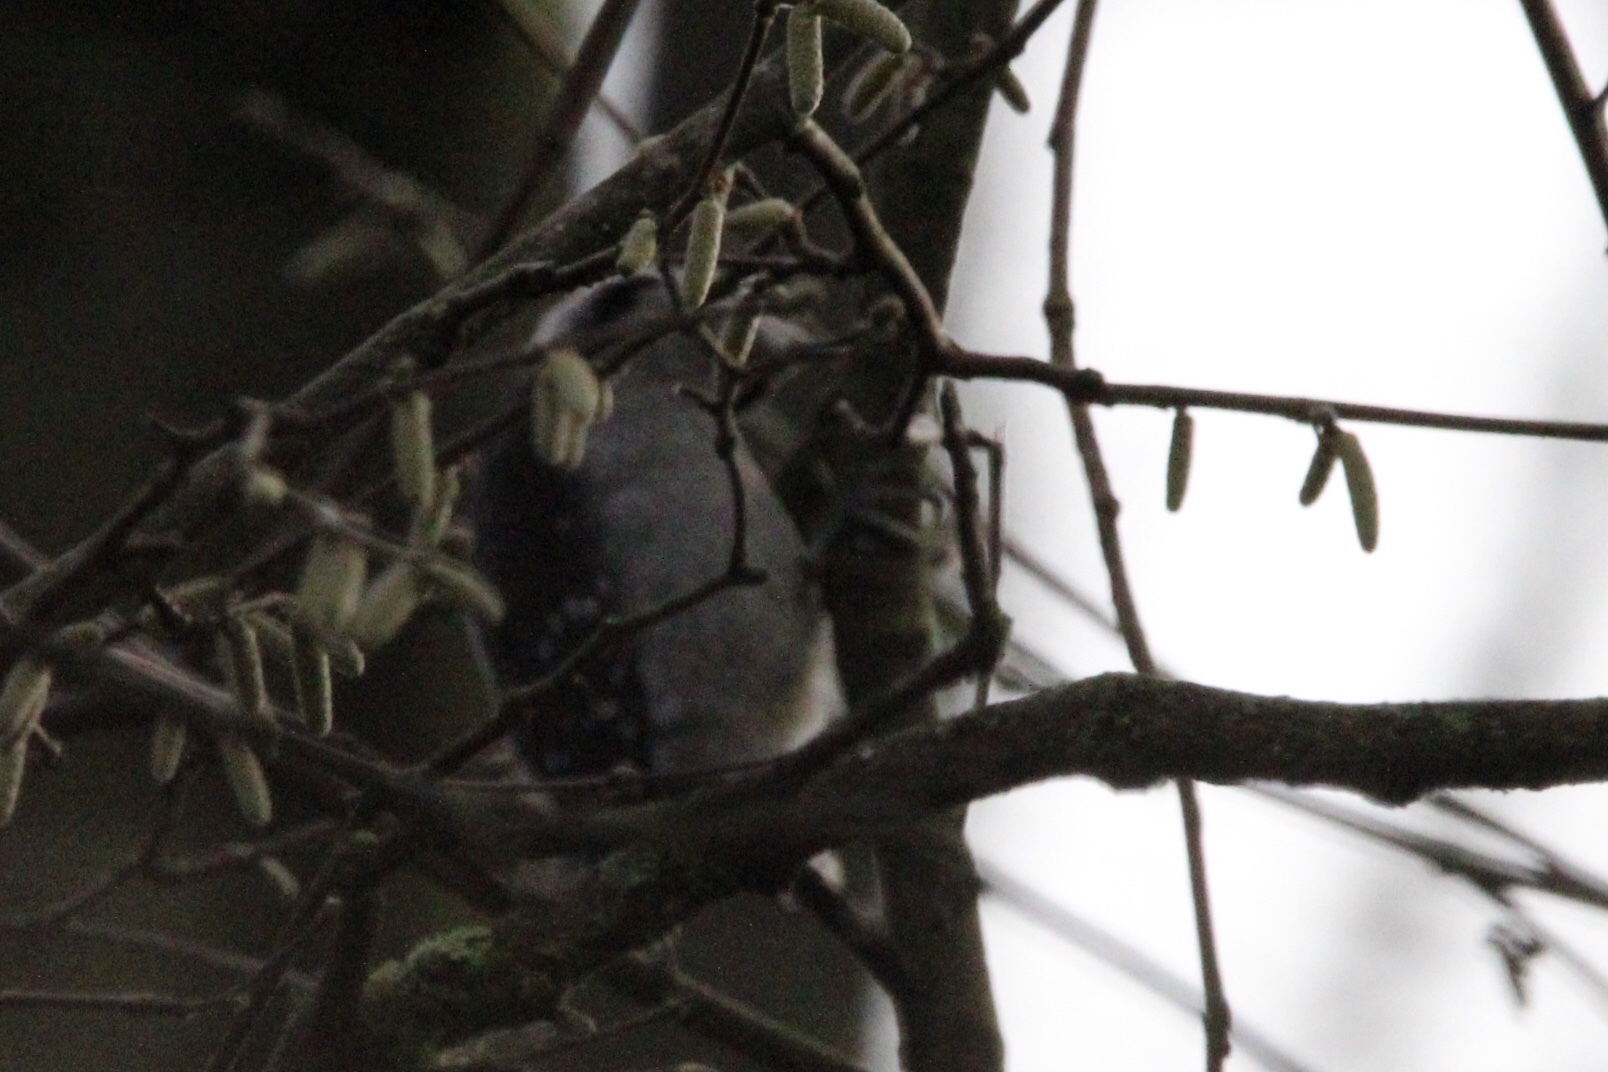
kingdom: Animalia
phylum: Chordata
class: Aves
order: Piciformes
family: Picidae
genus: Dryobates
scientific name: Dryobates pubescens
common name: Downy woodpecker
